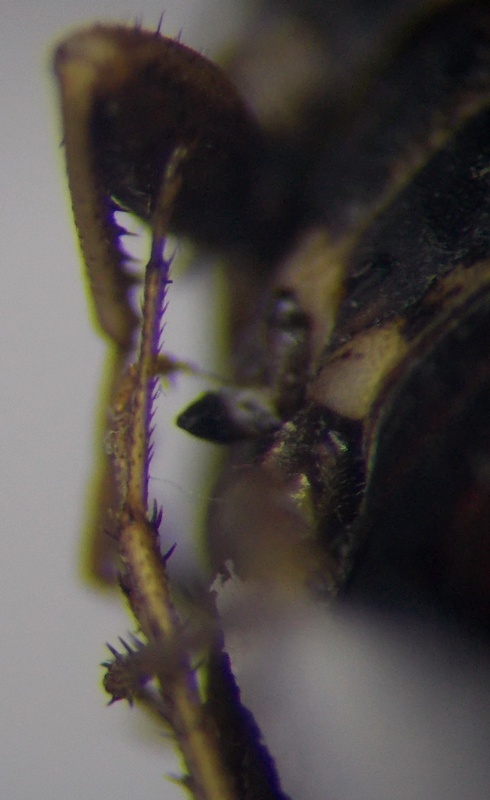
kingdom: Animalia
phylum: Arthropoda
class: Insecta
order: Hemiptera
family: Rhyparochromidae
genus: Emblethis
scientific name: Emblethis brachynotus
